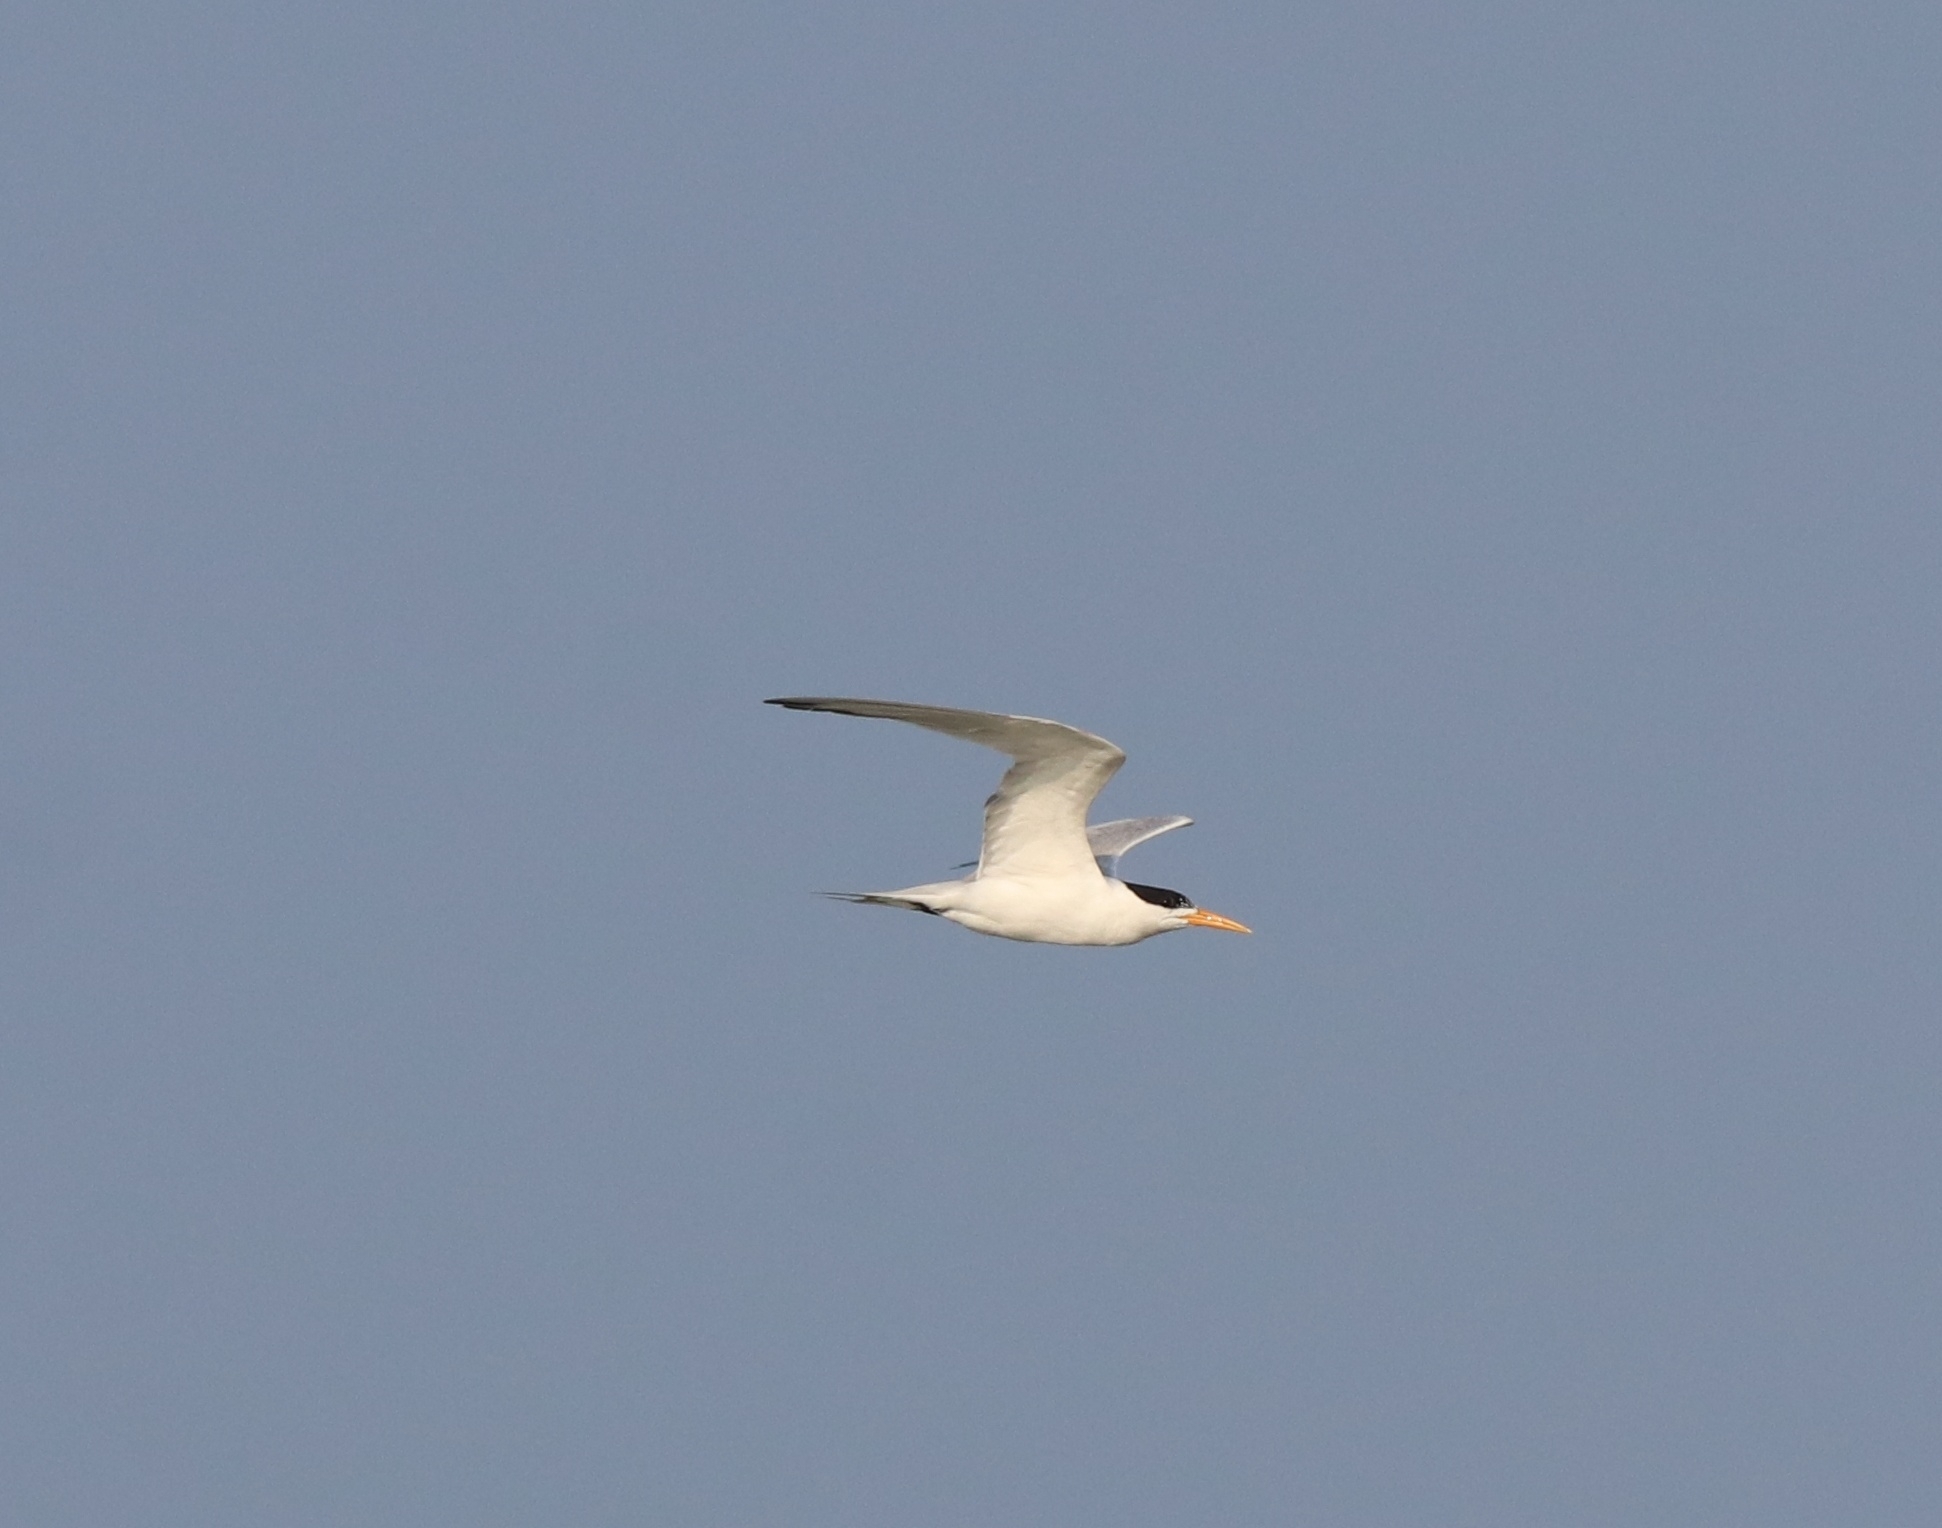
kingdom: Animalia
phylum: Chordata
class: Aves
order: Charadriiformes
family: Laridae
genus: Thalasseus
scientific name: Thalasseus bengalensis
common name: Lesser crested tern
